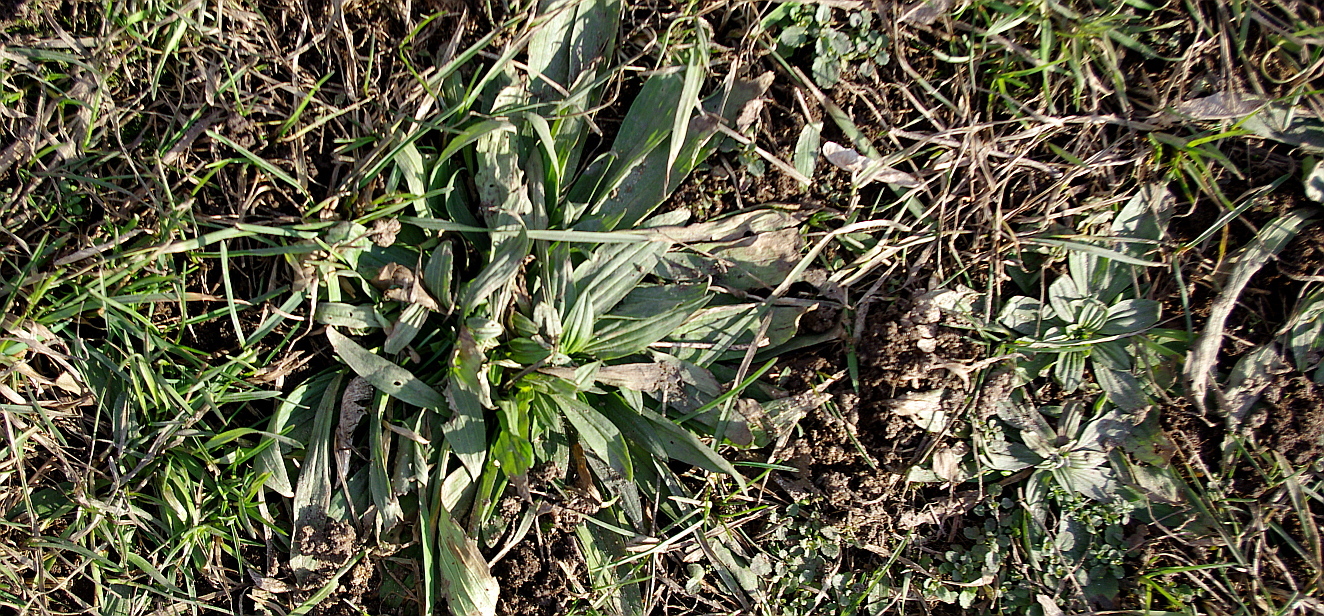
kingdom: Plantae
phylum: Tracheophyta
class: Magnoliopsida
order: Lamiales
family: Plantaginaceae
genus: Plantago
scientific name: Plantago lanceolata
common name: Ribwort plantain
